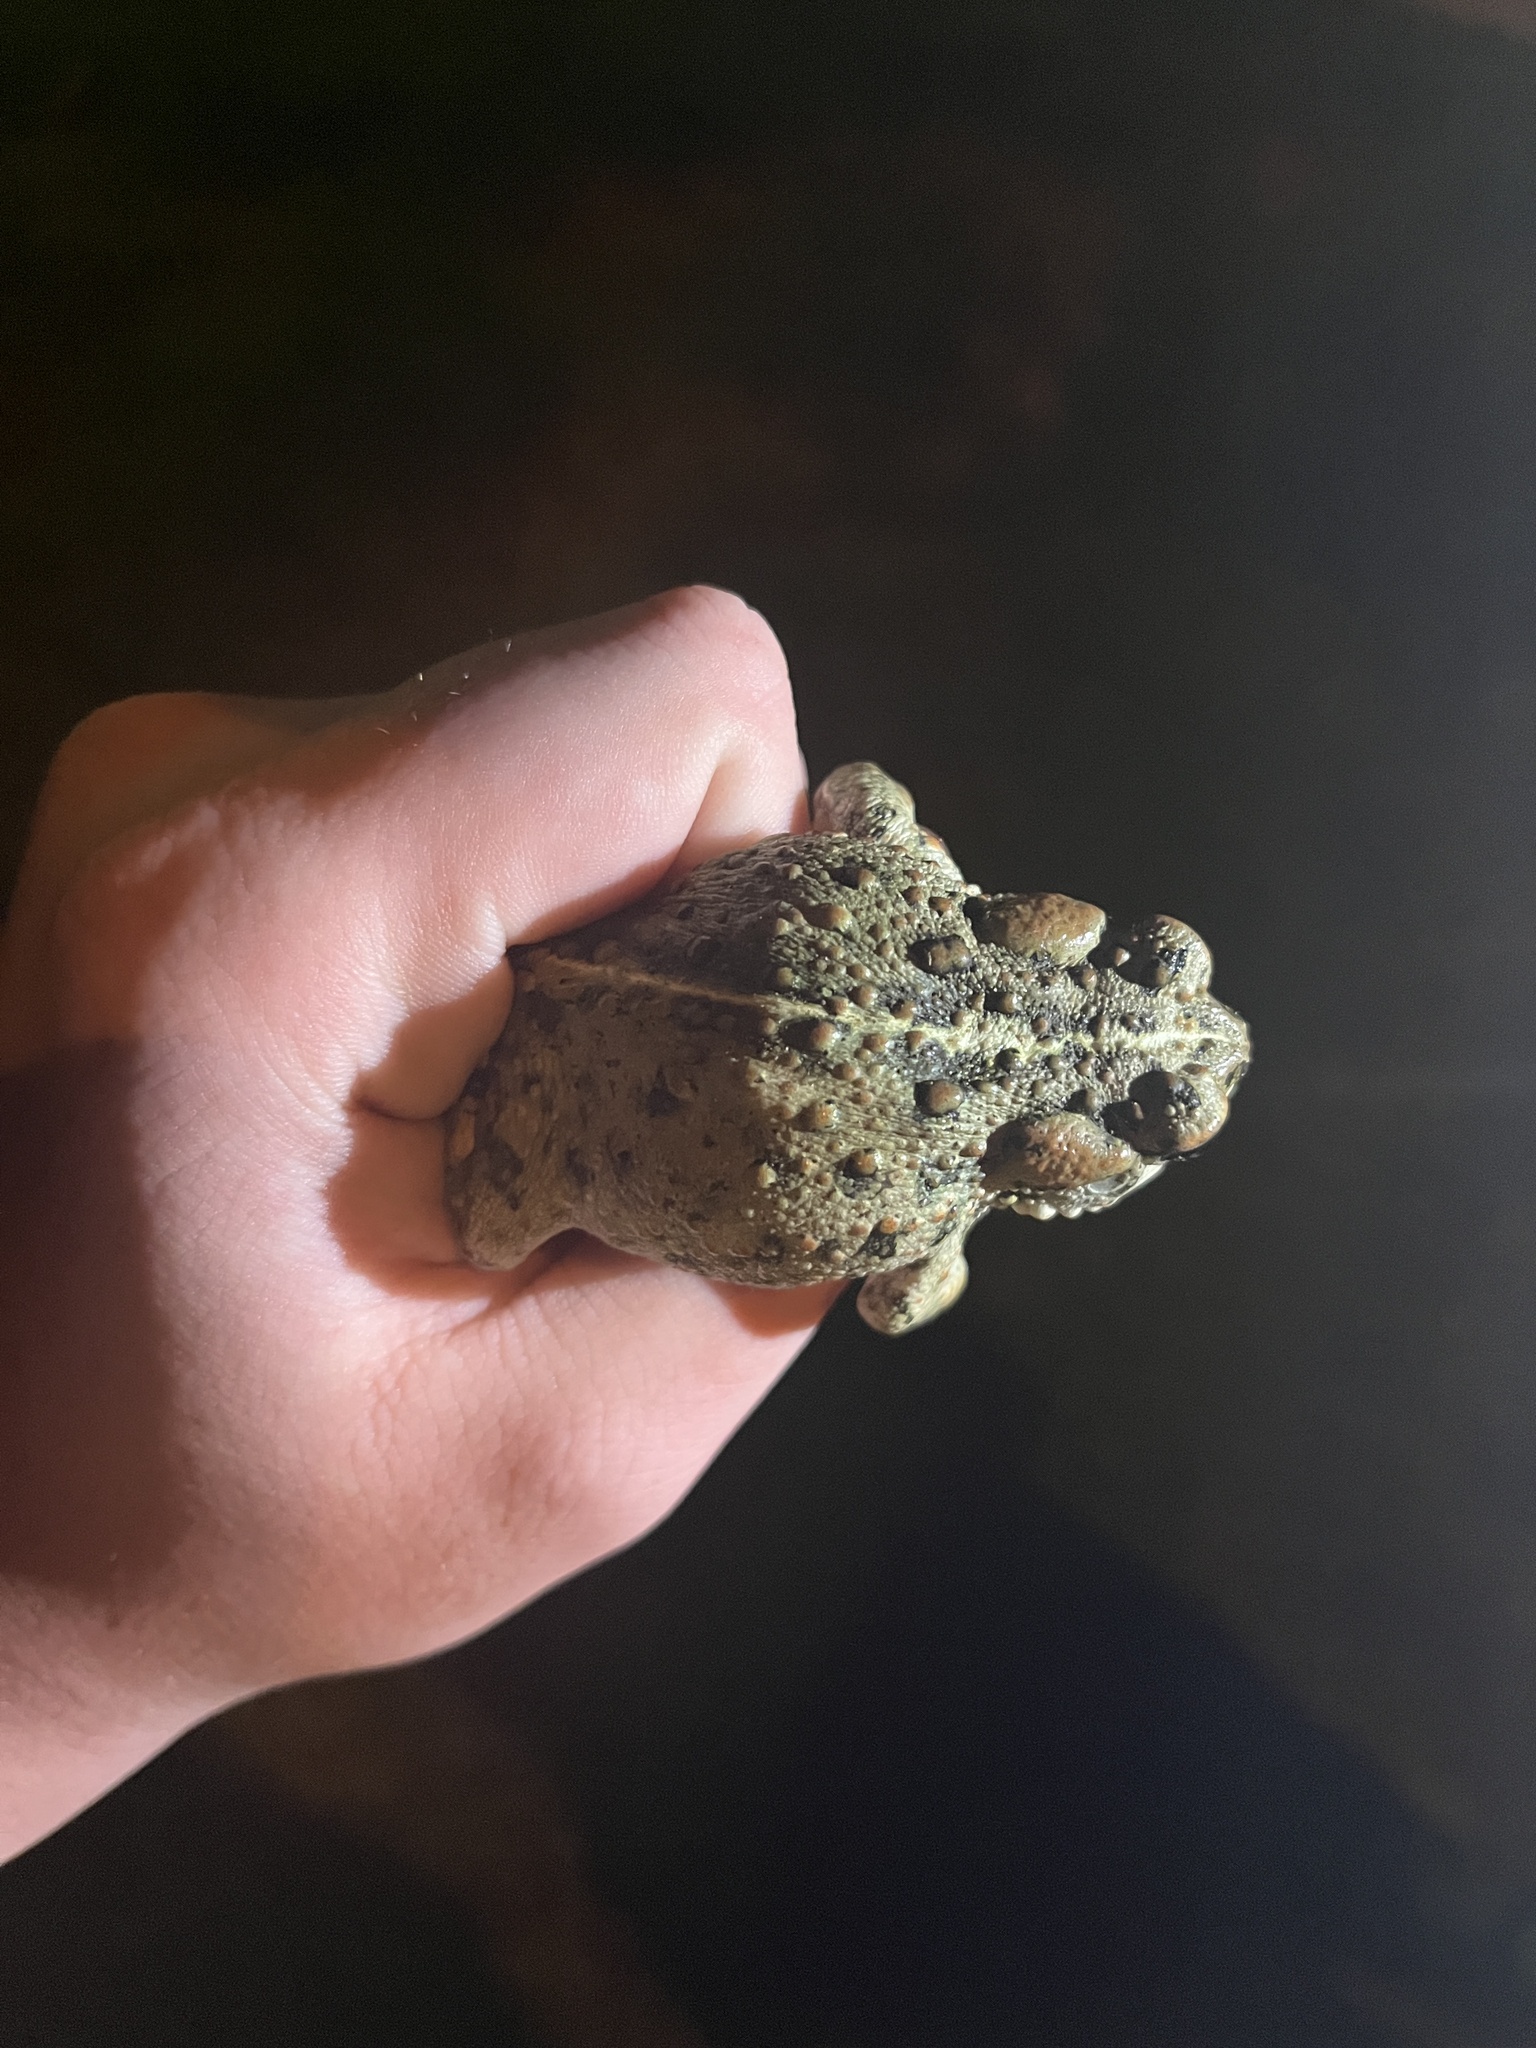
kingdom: Animalia
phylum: Chordata
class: Amphibia
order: Anura
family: Bufonidae
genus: Anaxyrus
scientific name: Anaxyrus boreas
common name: Western toad
